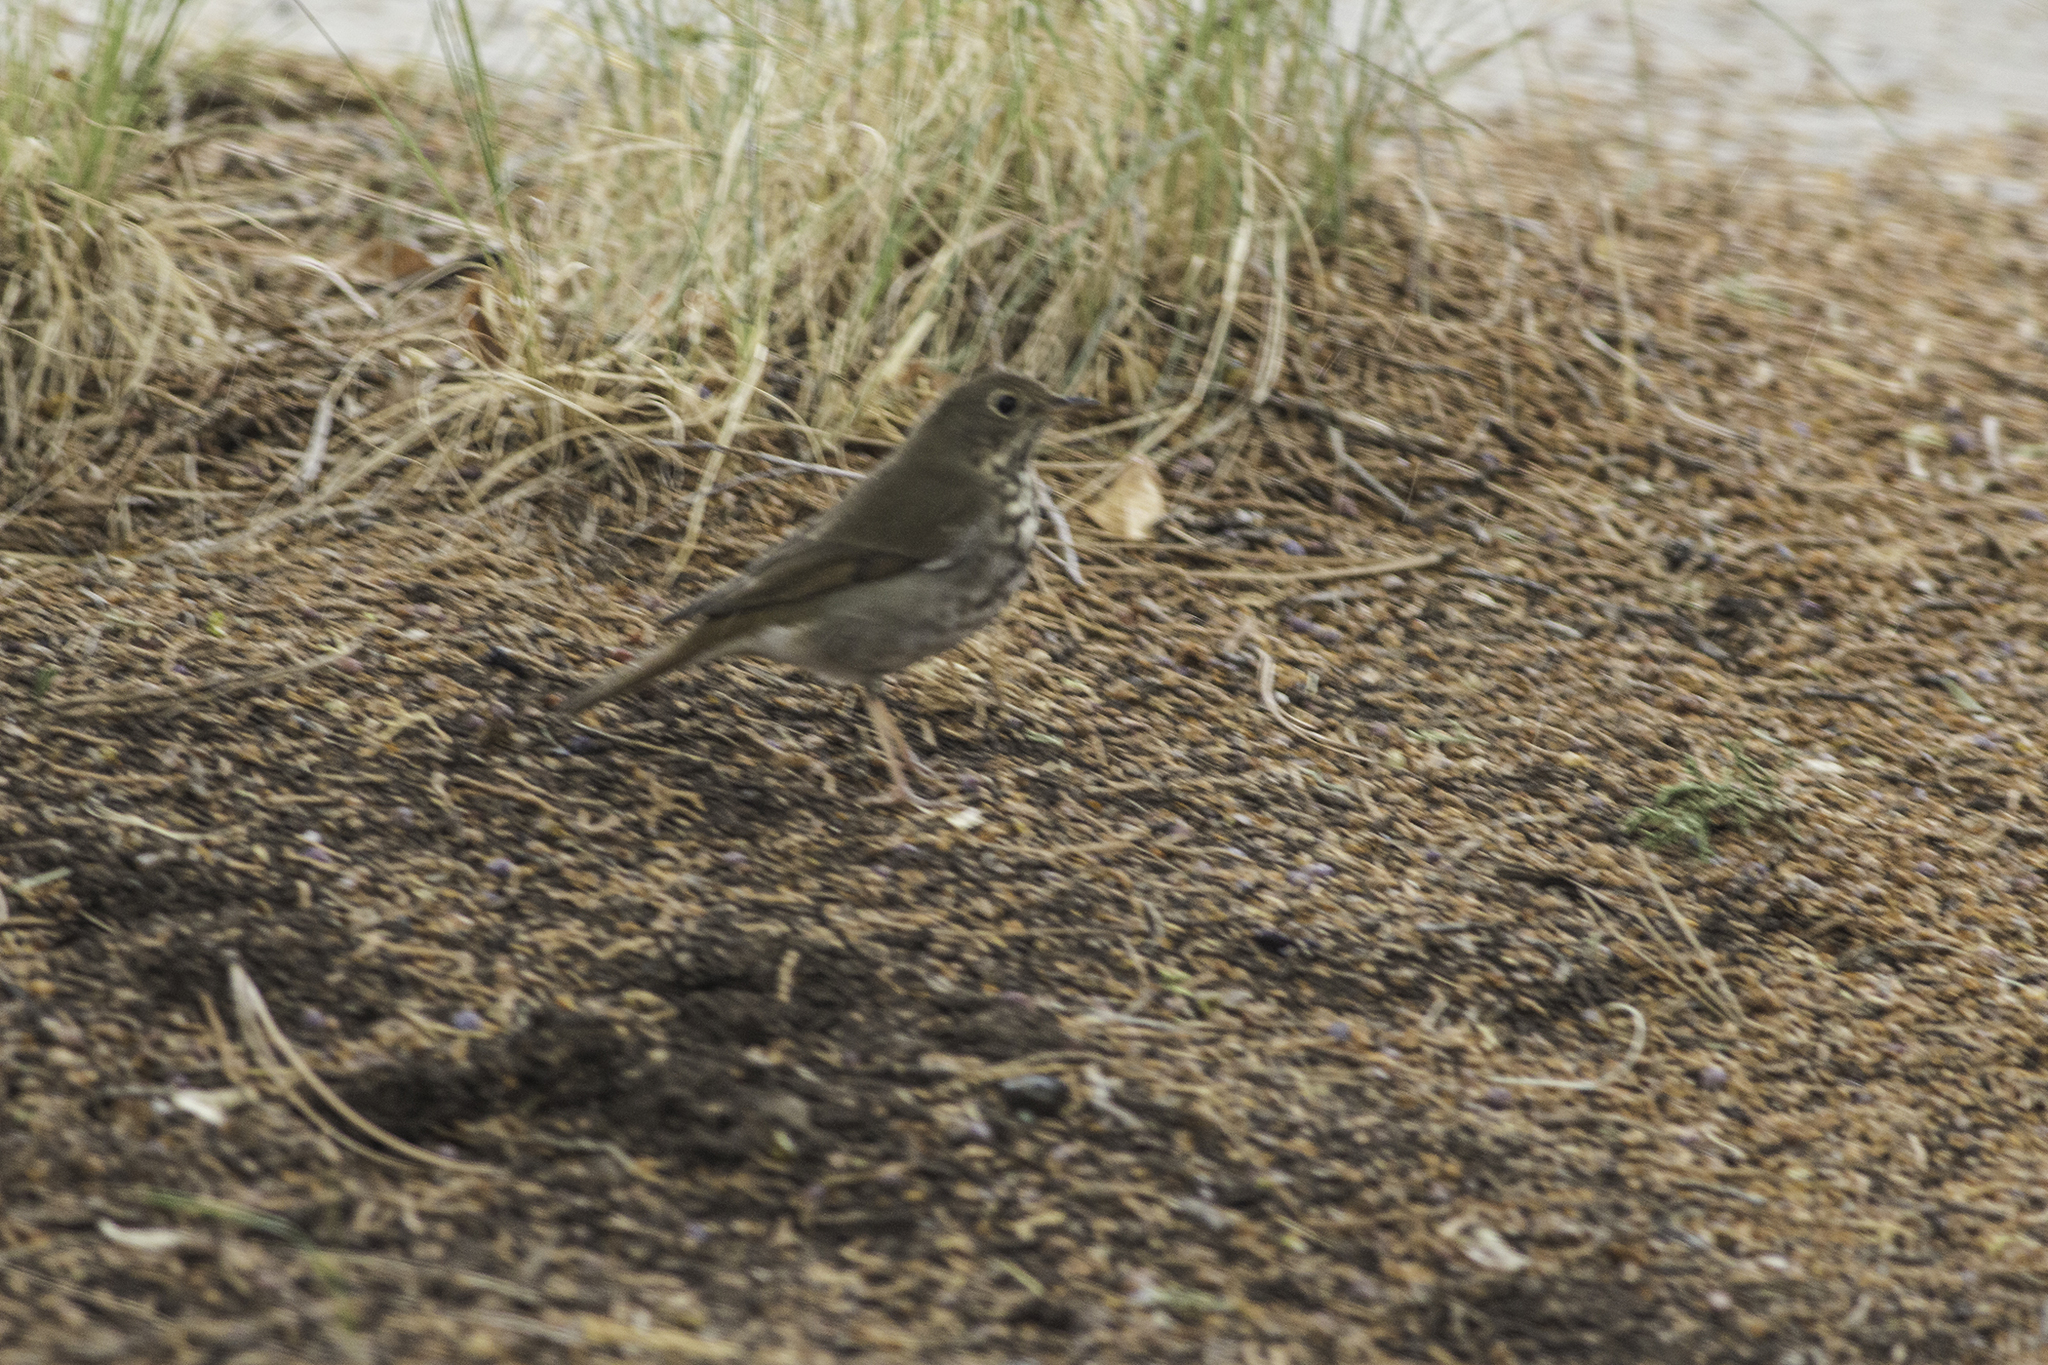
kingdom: Animalia
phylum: Chordata
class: Aves
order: Passeriformes
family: Turdidae
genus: Catharus
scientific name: Catharus guttatus
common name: Hermit thrush
